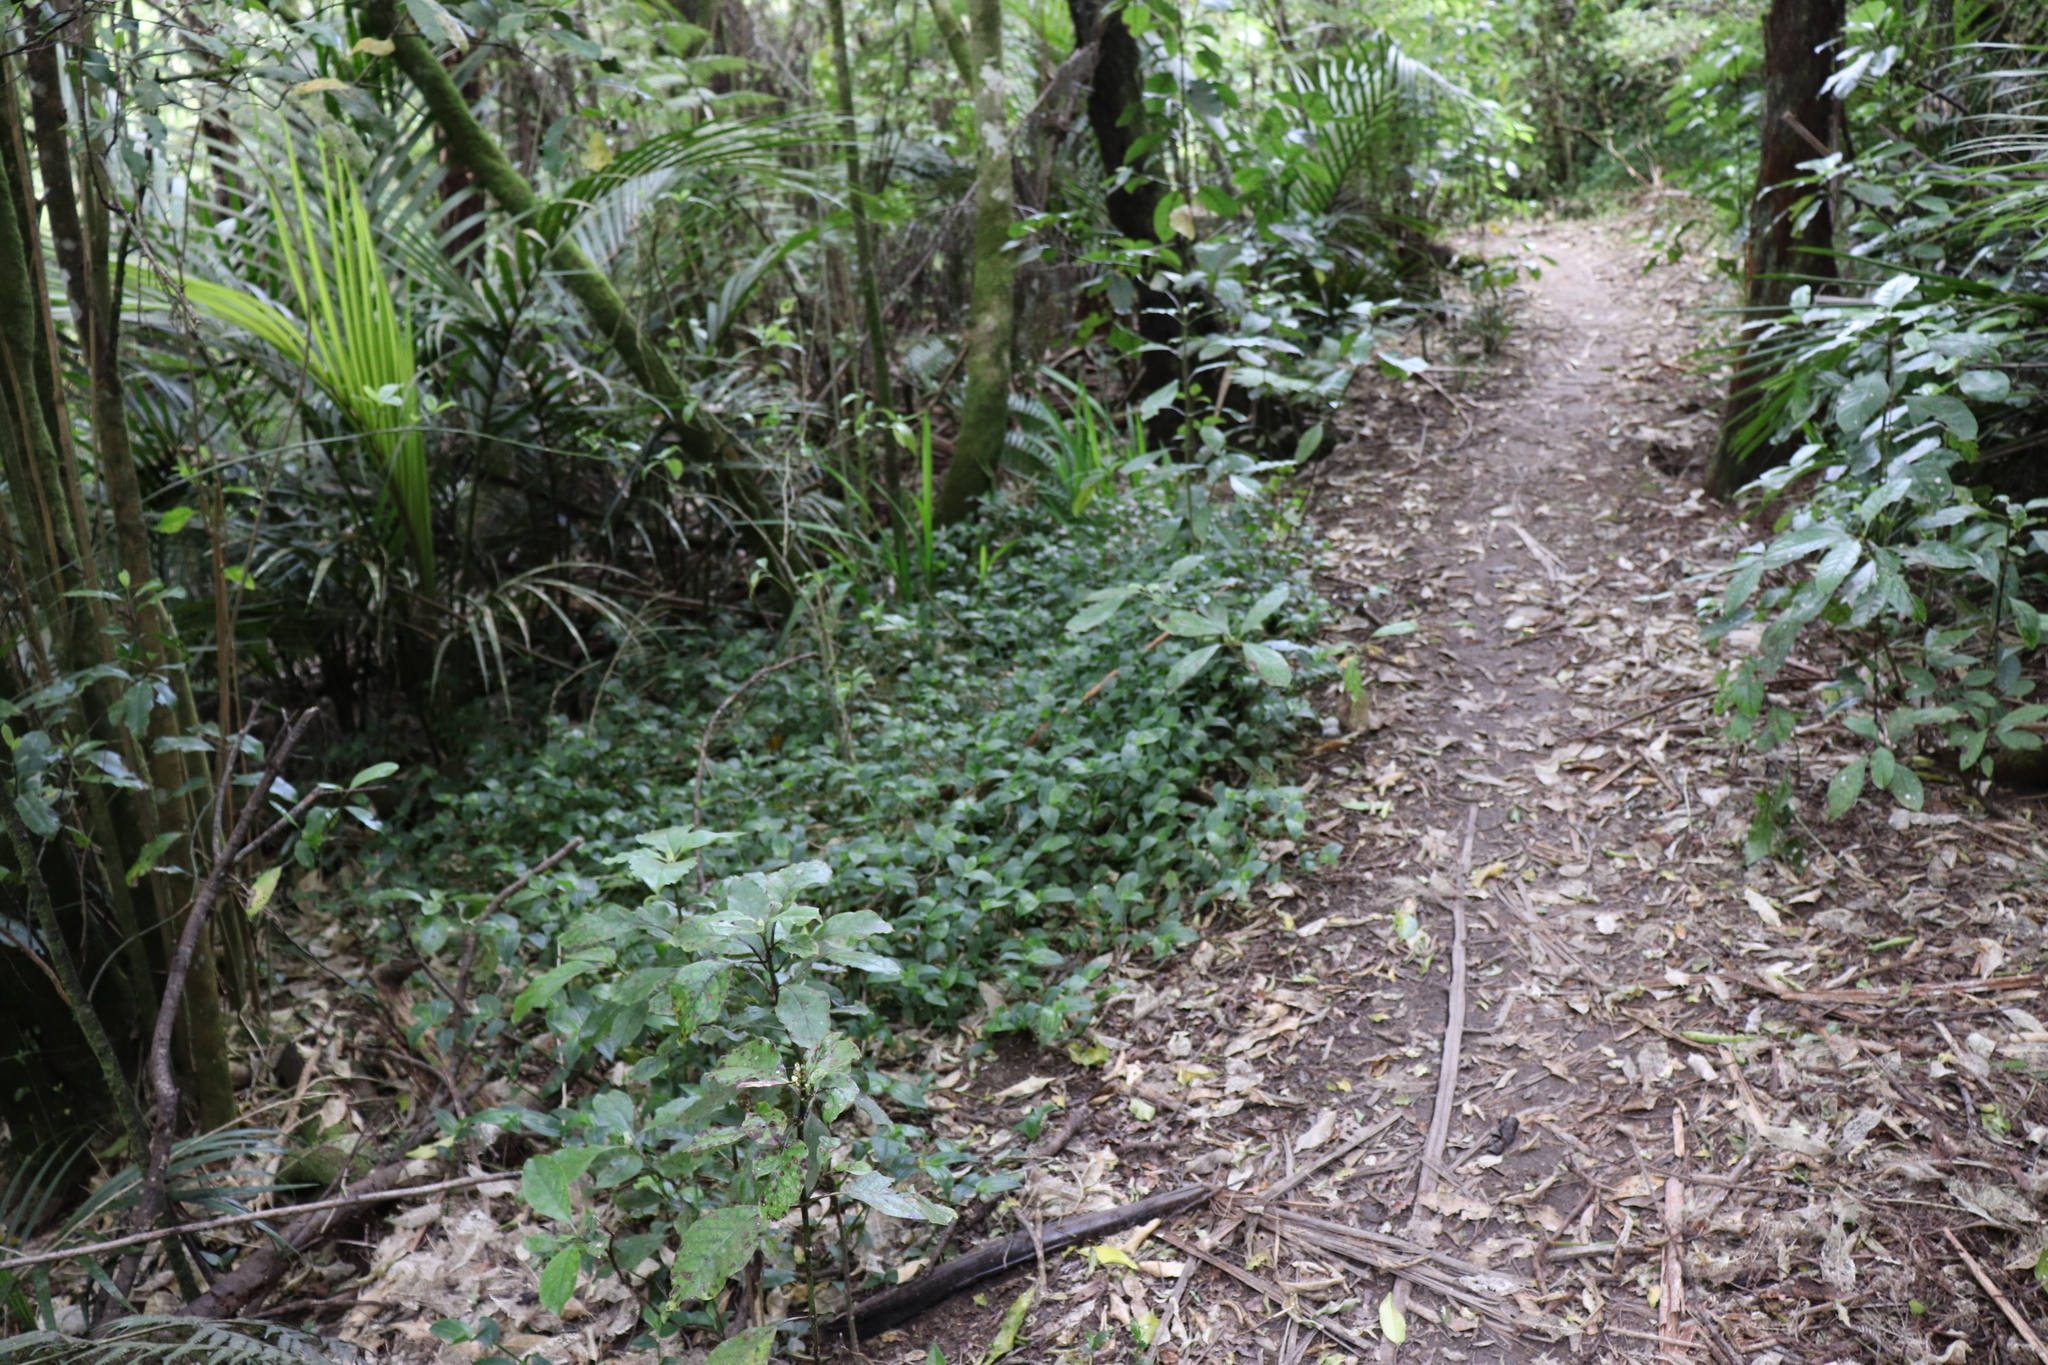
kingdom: Plantae
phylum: Tracheophyta
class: Liliopsida
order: Commelinales
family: Commelinaceae
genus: Tradescantia
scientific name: Tradescantia fluminensis
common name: Wandering-jew
